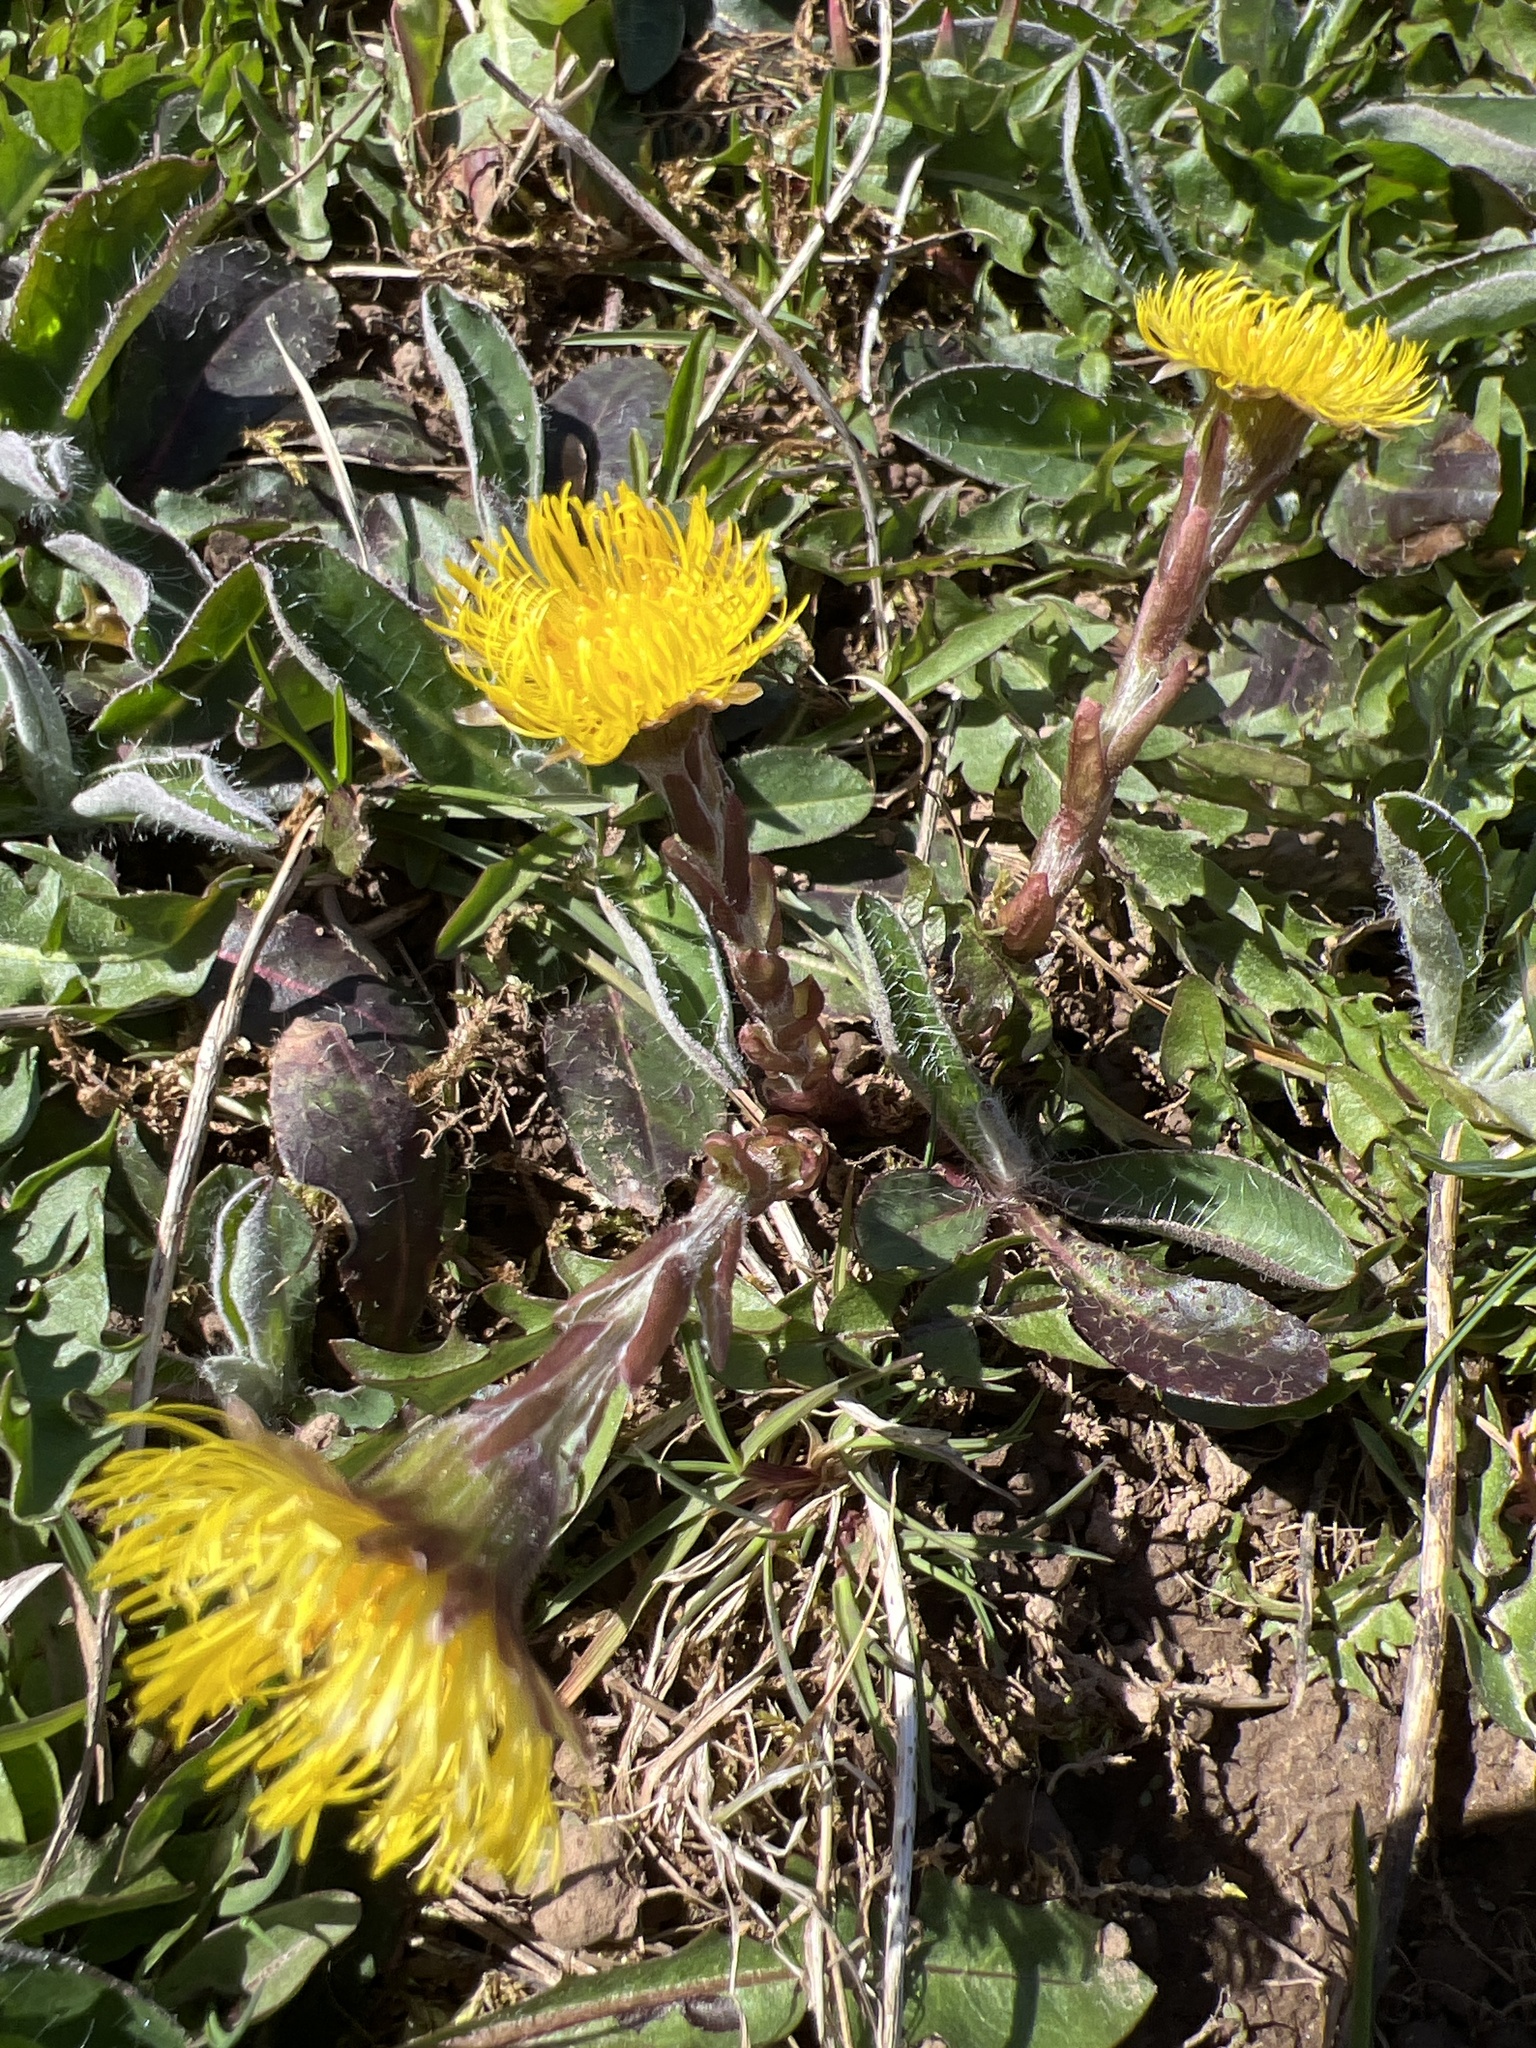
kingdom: Plantae
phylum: Tracheophyta
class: Magnoliopsida
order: Asterales
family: Asteraceae
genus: Tussilago
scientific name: Tussilago farfara
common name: Coltsfoot
